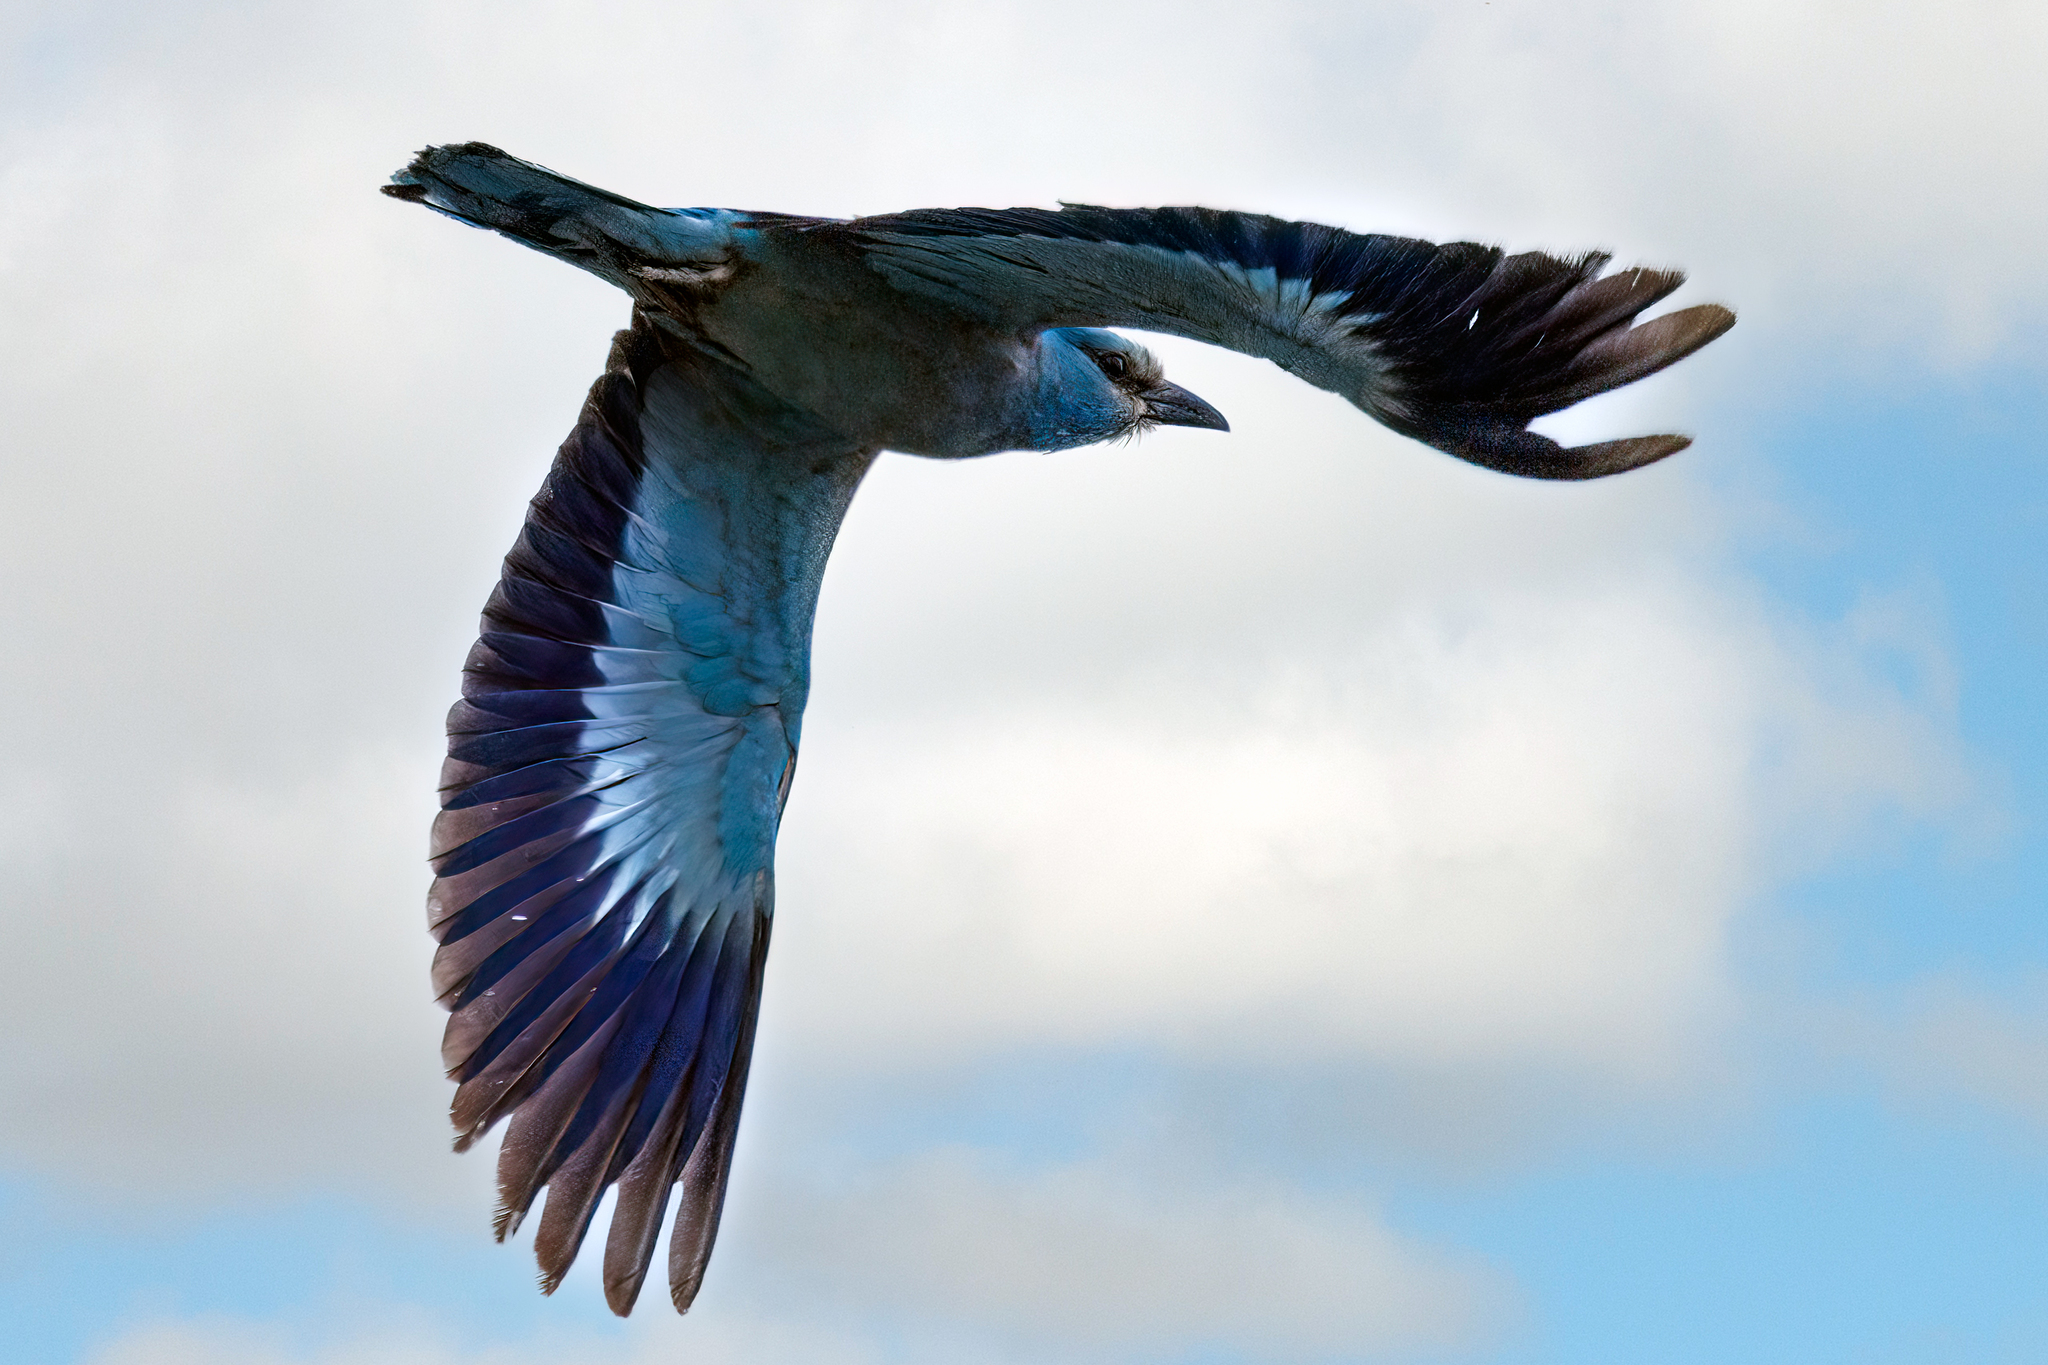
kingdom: Animalia
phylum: Chordata
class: Aves
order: Coraciiformes
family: Coraciidae
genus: Coracias
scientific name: Coracias garrulus
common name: European roller
